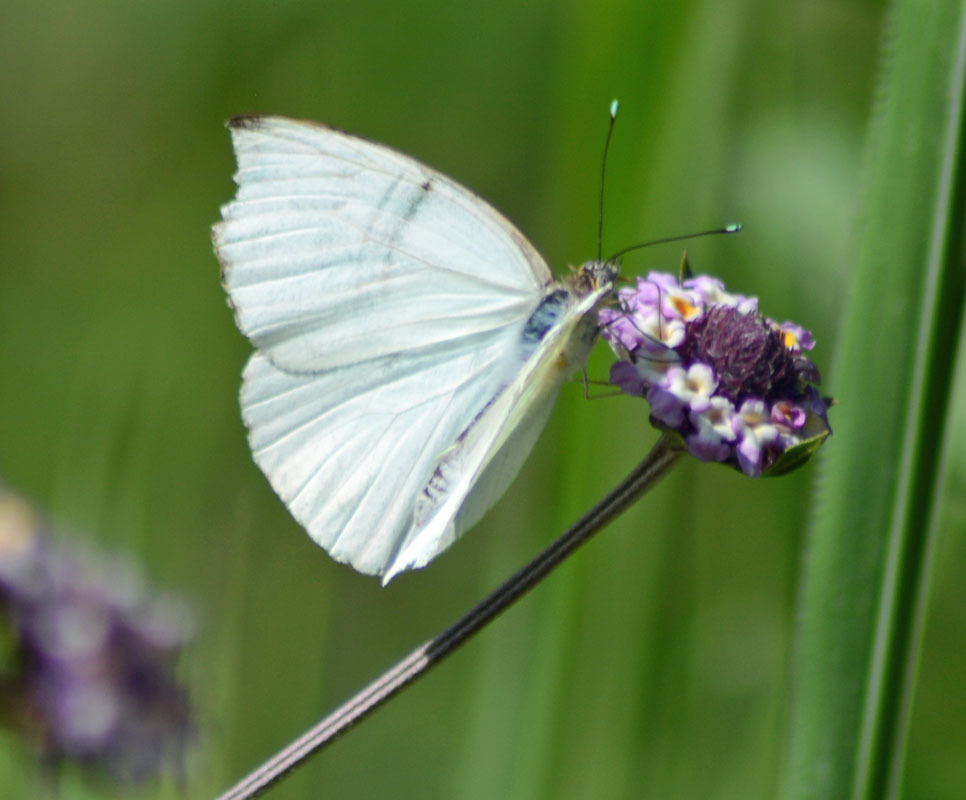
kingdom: Animalia
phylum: Arthropoda
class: Insecta
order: Lepidoptera
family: Pieridae
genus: Leptophobia
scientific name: Leptophobia aripa
